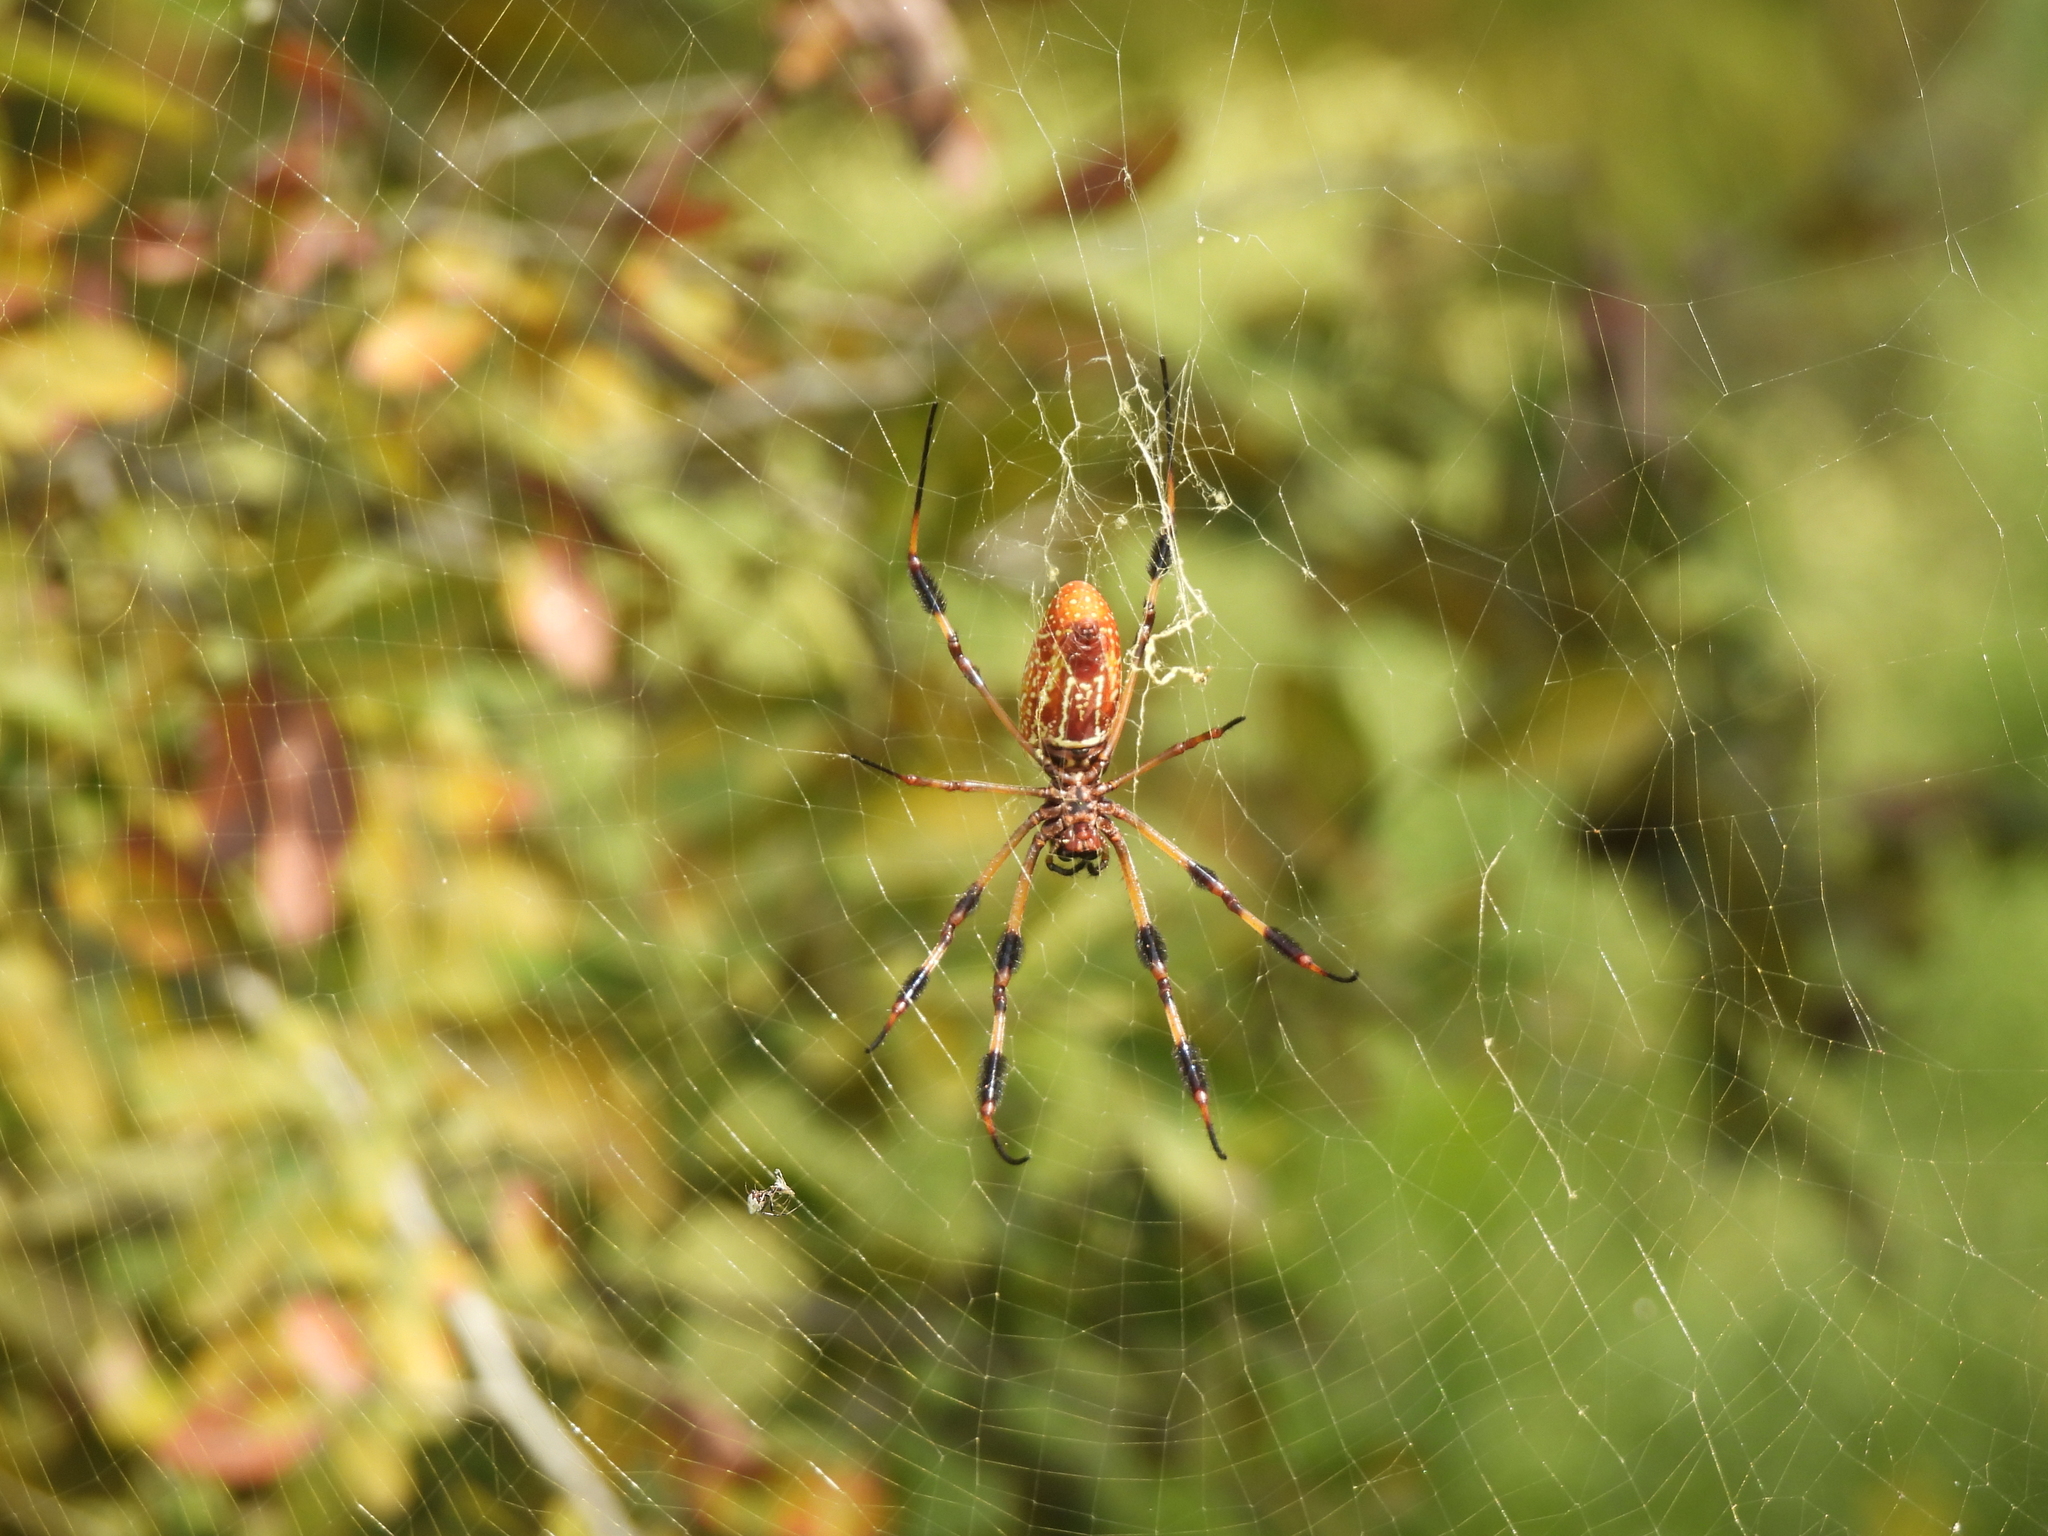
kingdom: Animalia
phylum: Arthropoda
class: Arachnida
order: Araneae
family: Araneidae
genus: Trichonephila
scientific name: Trichonephila clavipes
